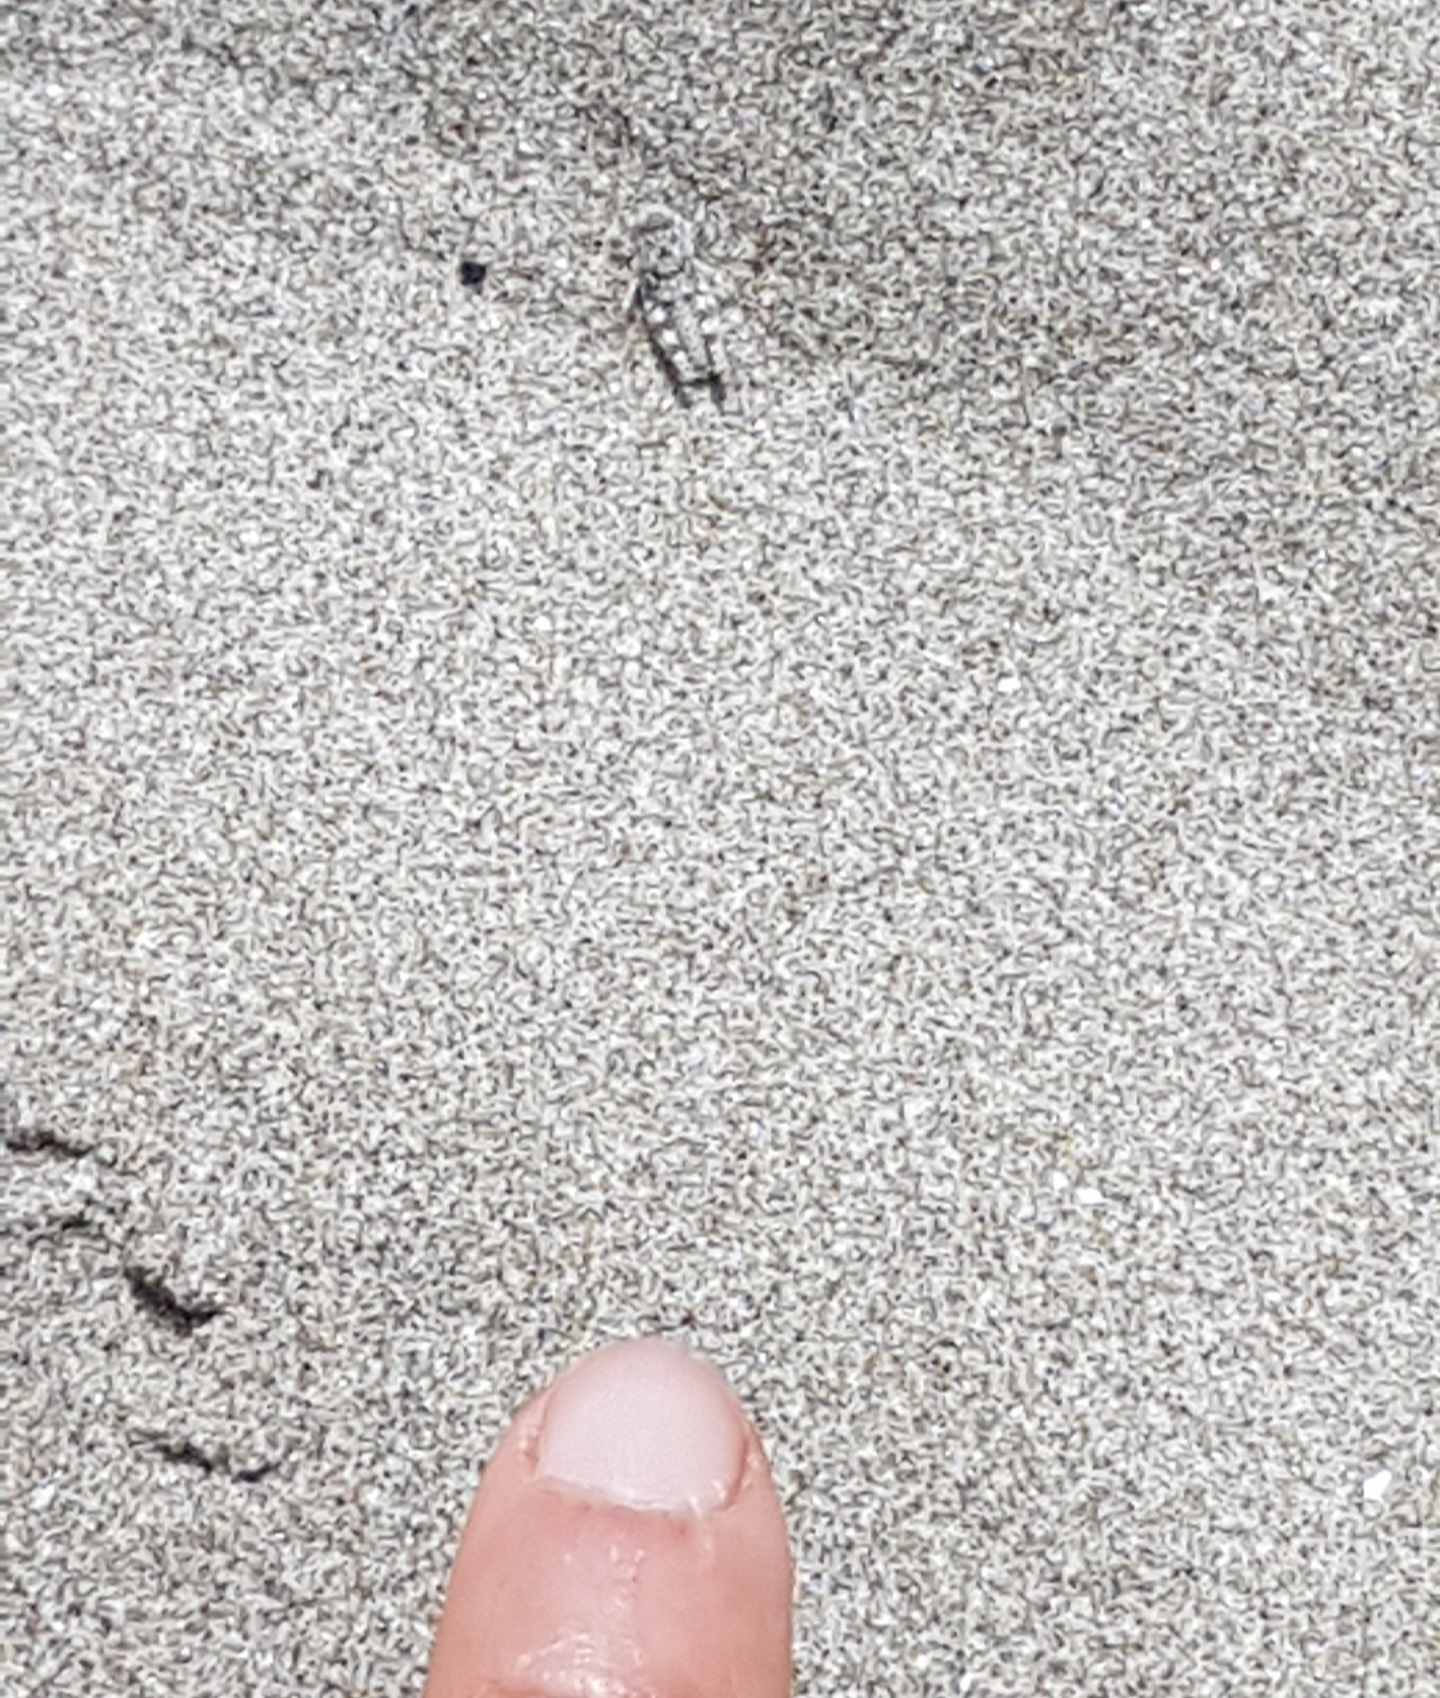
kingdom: Animalia
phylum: Arthropoda
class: Insecta
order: Orthoptera
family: Acrididae
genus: Sphingonotus
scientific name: Sphingonotus caerulans
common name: Blue-winged locust
